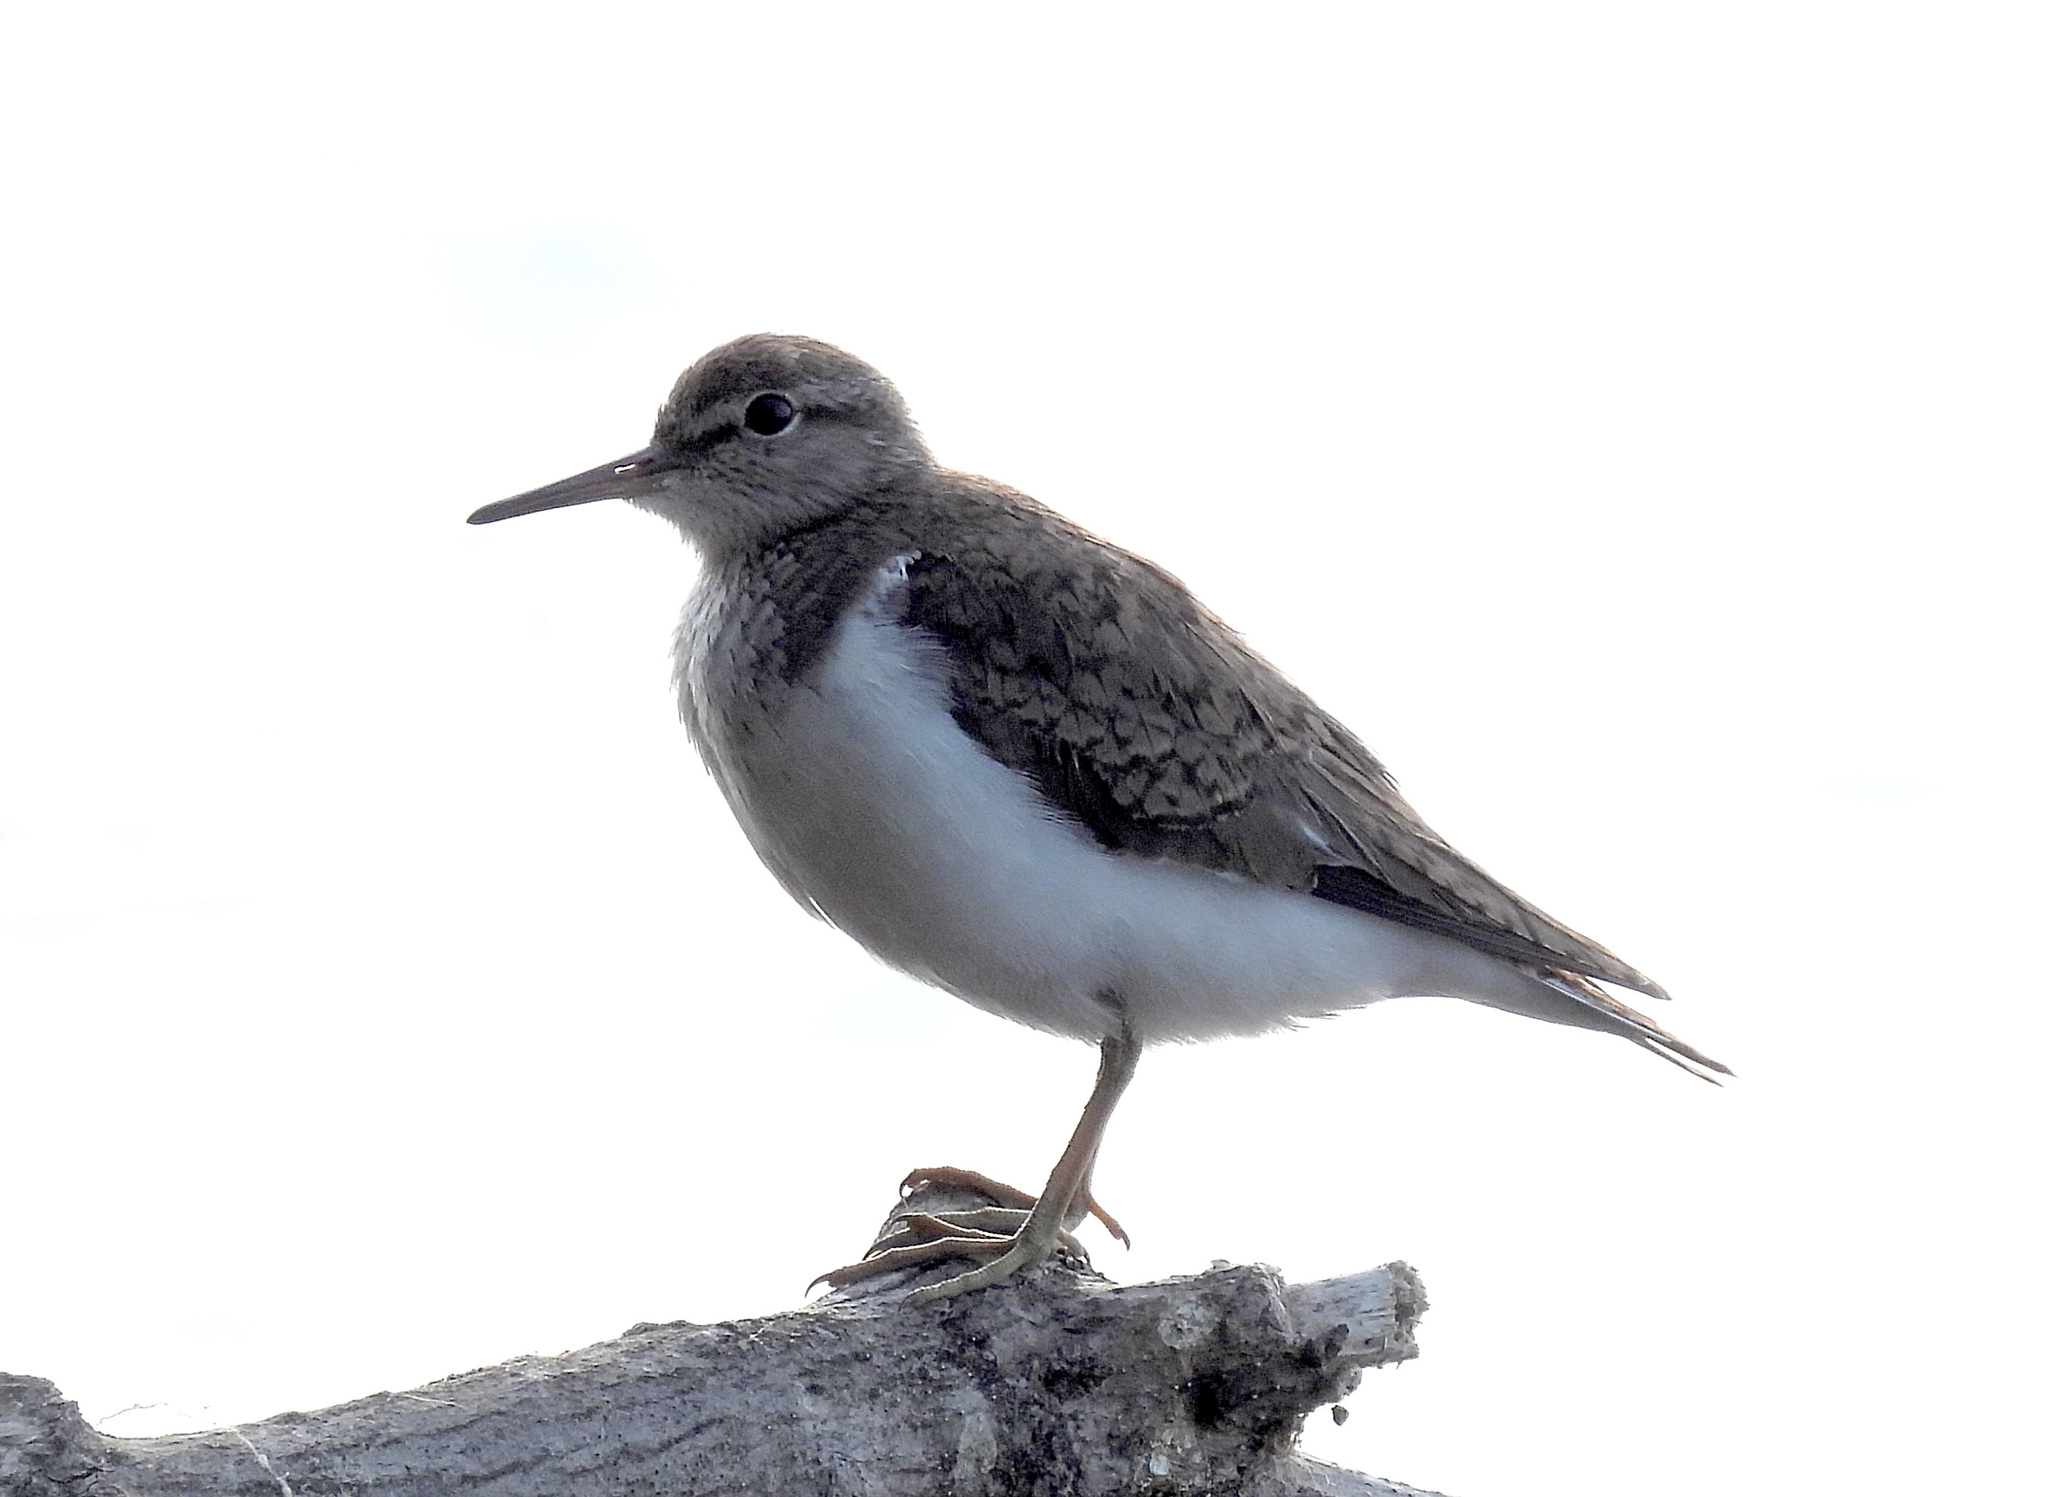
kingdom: Animalia
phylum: Chordata
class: Aves
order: Charadriiformes
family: Scolopacidae
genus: Actitis
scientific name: Actitis hypoleucos
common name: Common sandpiper
